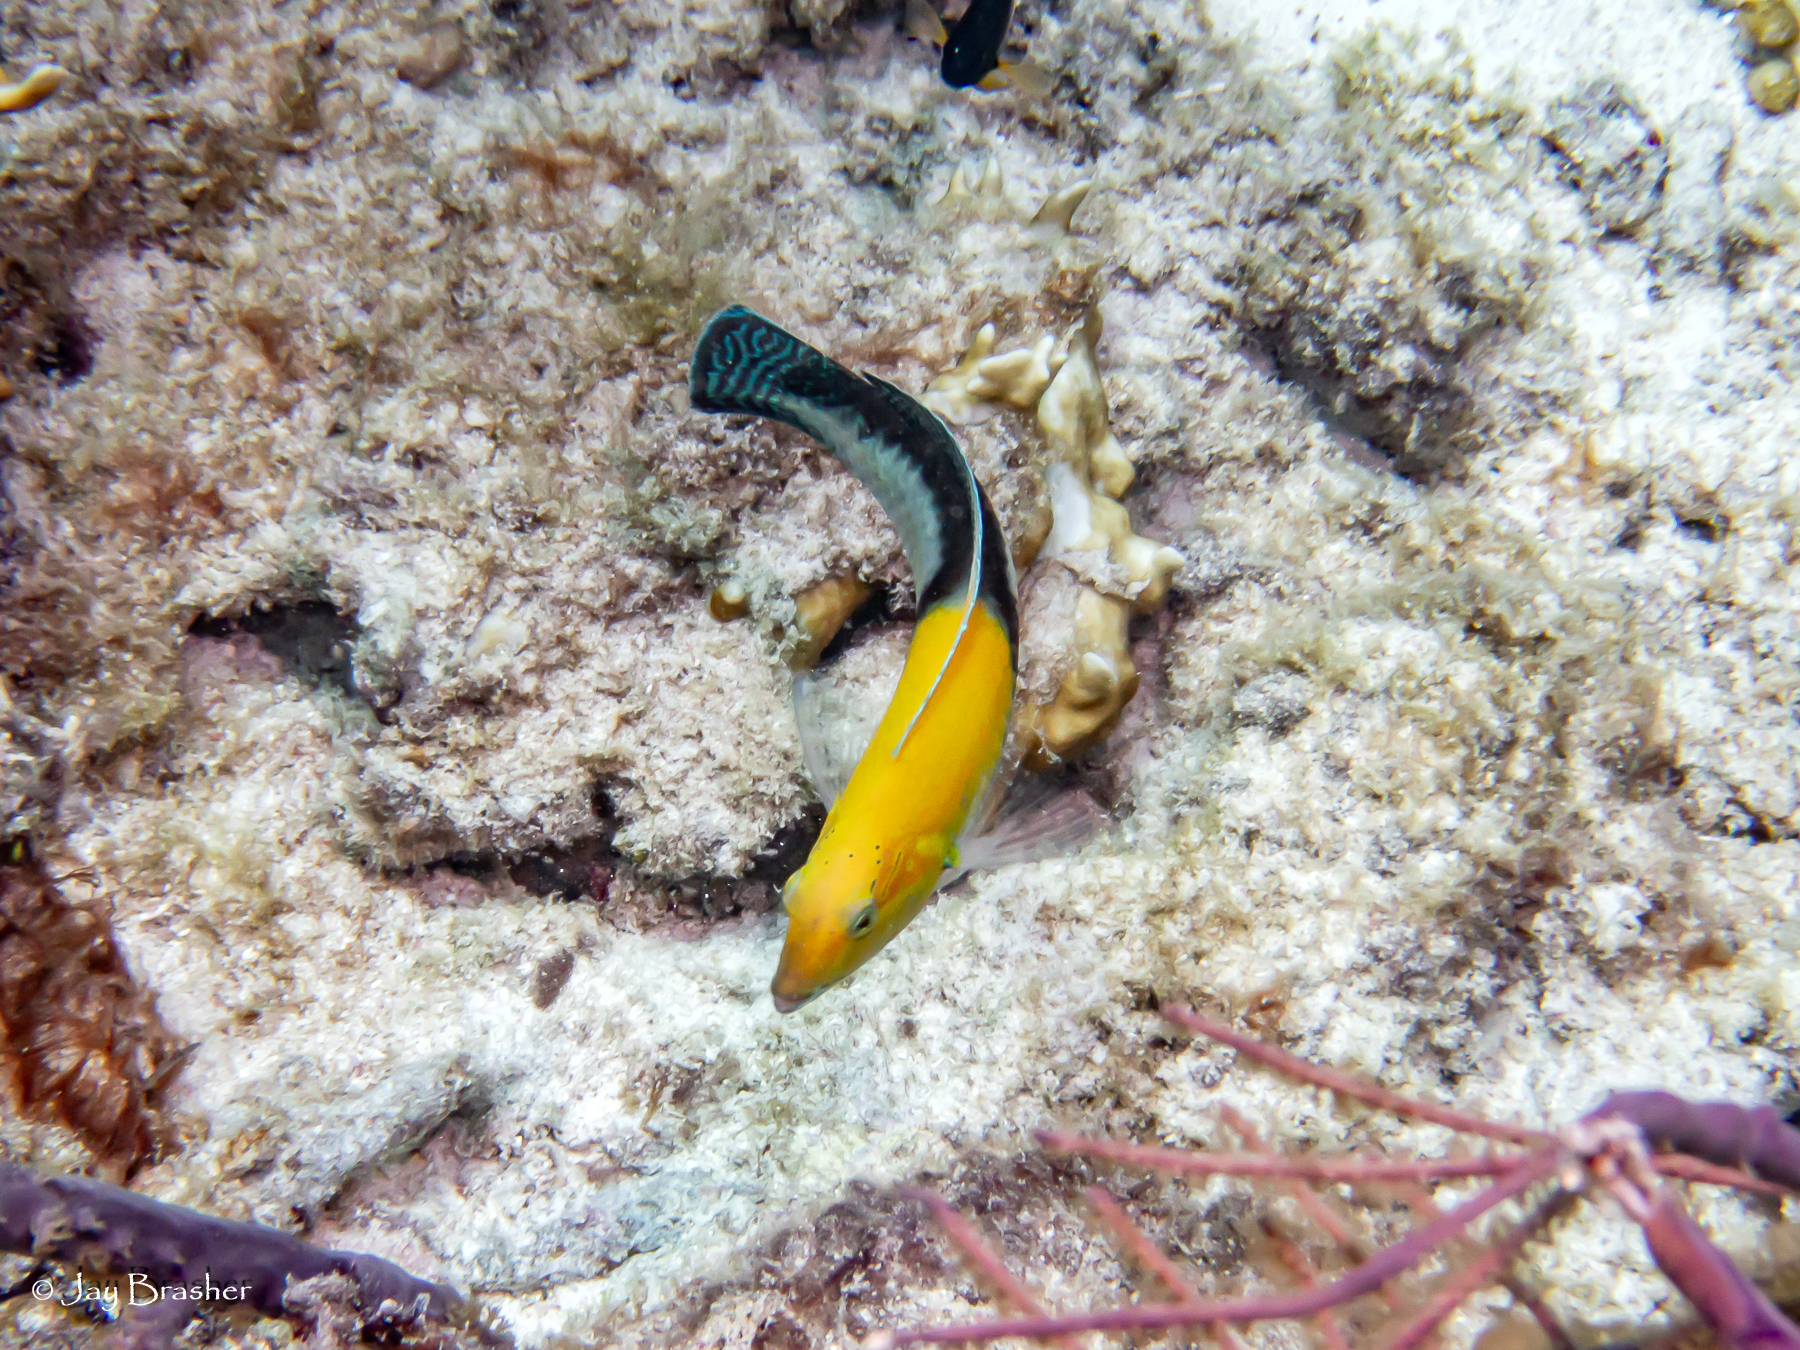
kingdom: Animalia
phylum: Chordata
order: Perciformes
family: Labridae
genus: Halichoeres
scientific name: Halichoeres garnoti
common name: Yellowhead wrasse
